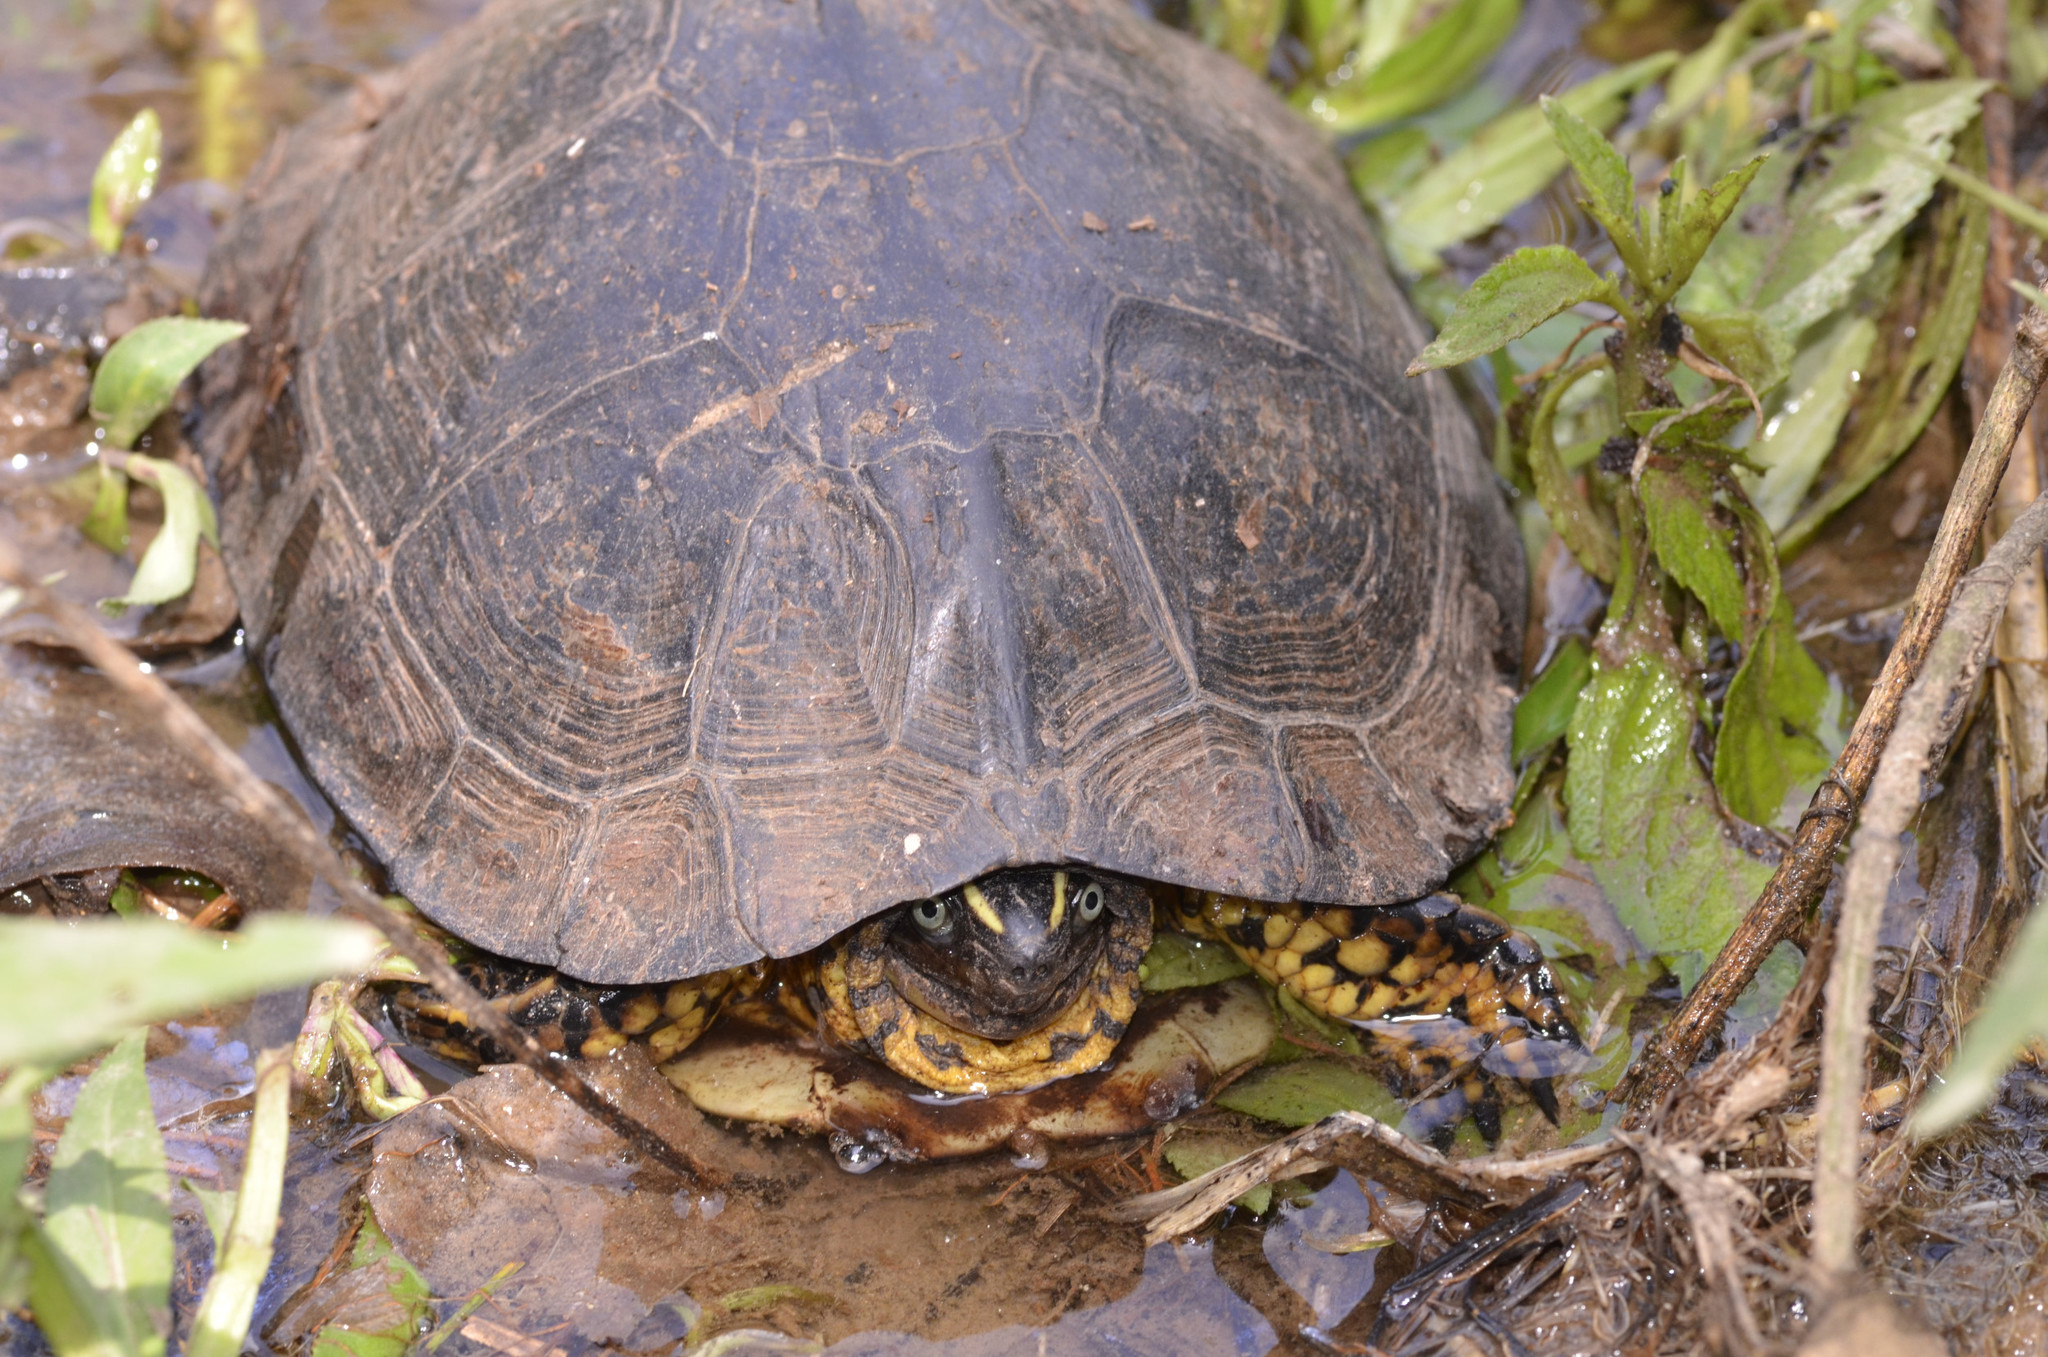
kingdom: Animalia
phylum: Chordata
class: Testudines
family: Geoemydidae
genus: Rhinoclemmys
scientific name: Rhinoclemmys melanosterna
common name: Colombian wood turtle
